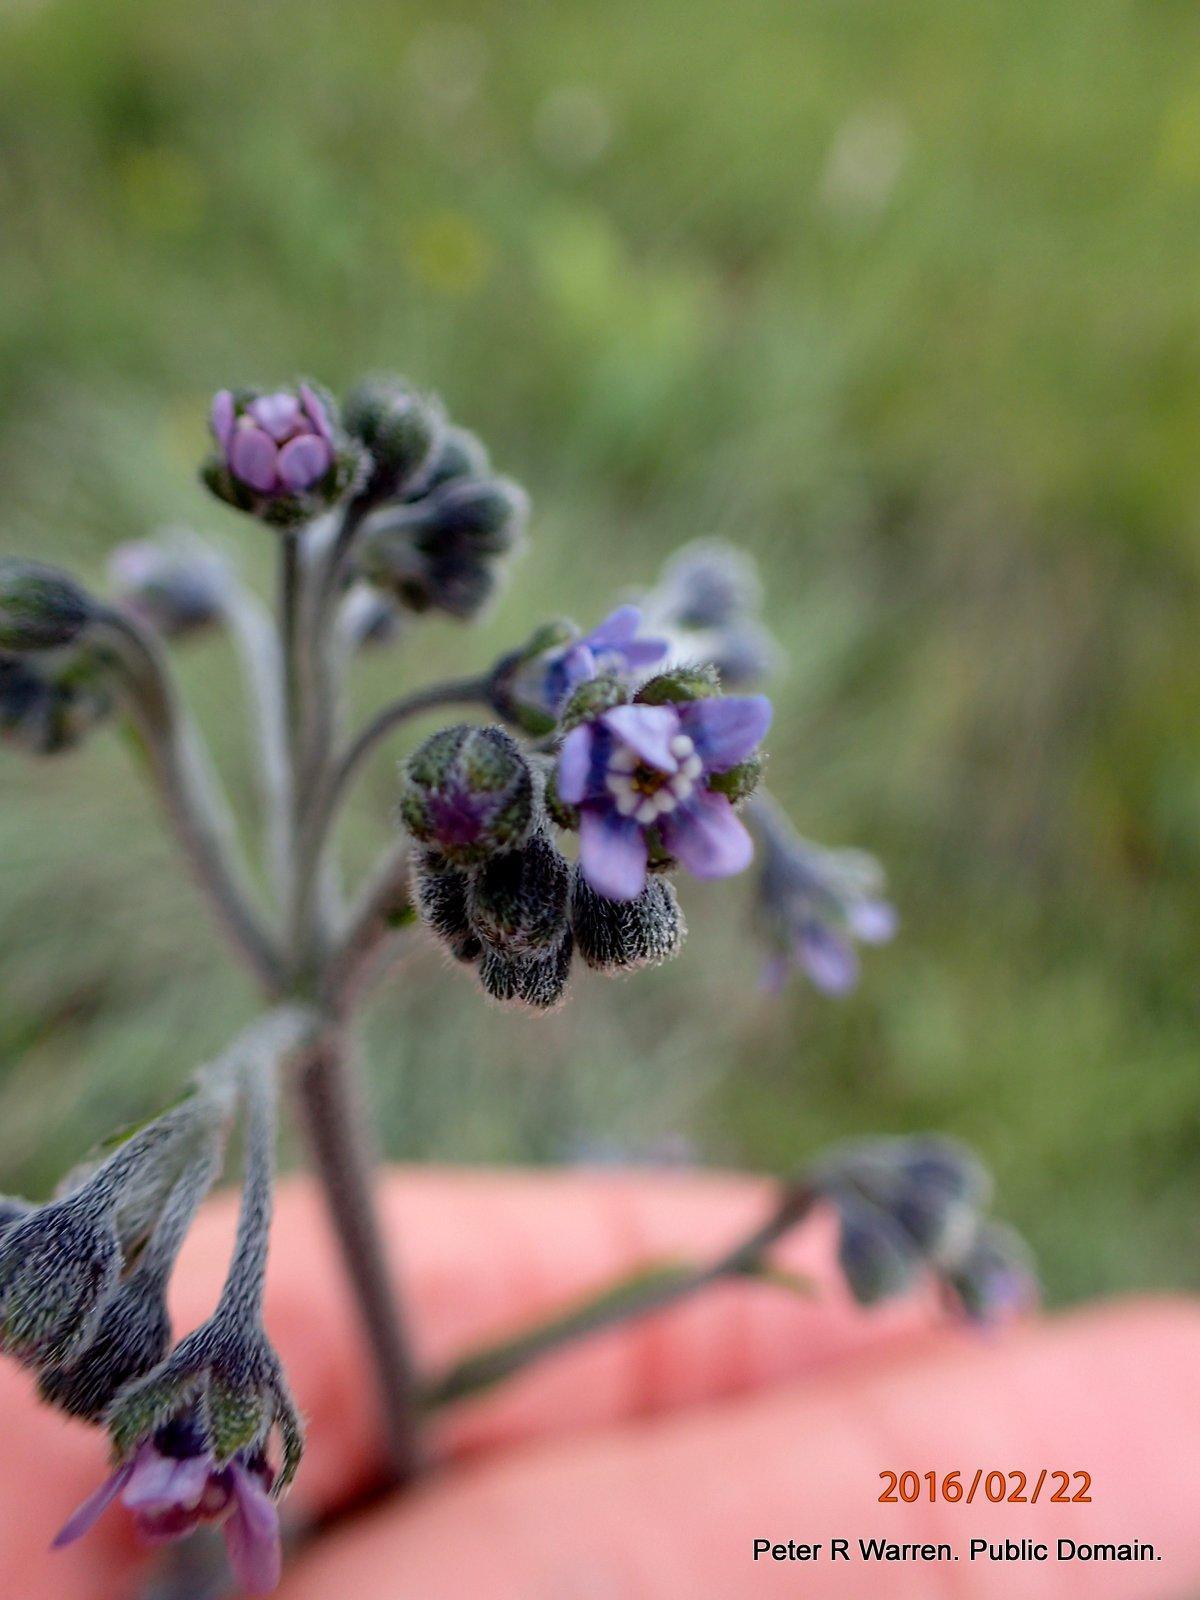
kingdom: Plantae
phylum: Tracheophyta
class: Magnoliopsida
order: Boraginales
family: Boraginaceae
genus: Cynoglossum
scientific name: Cynoglossum austroafricanum
